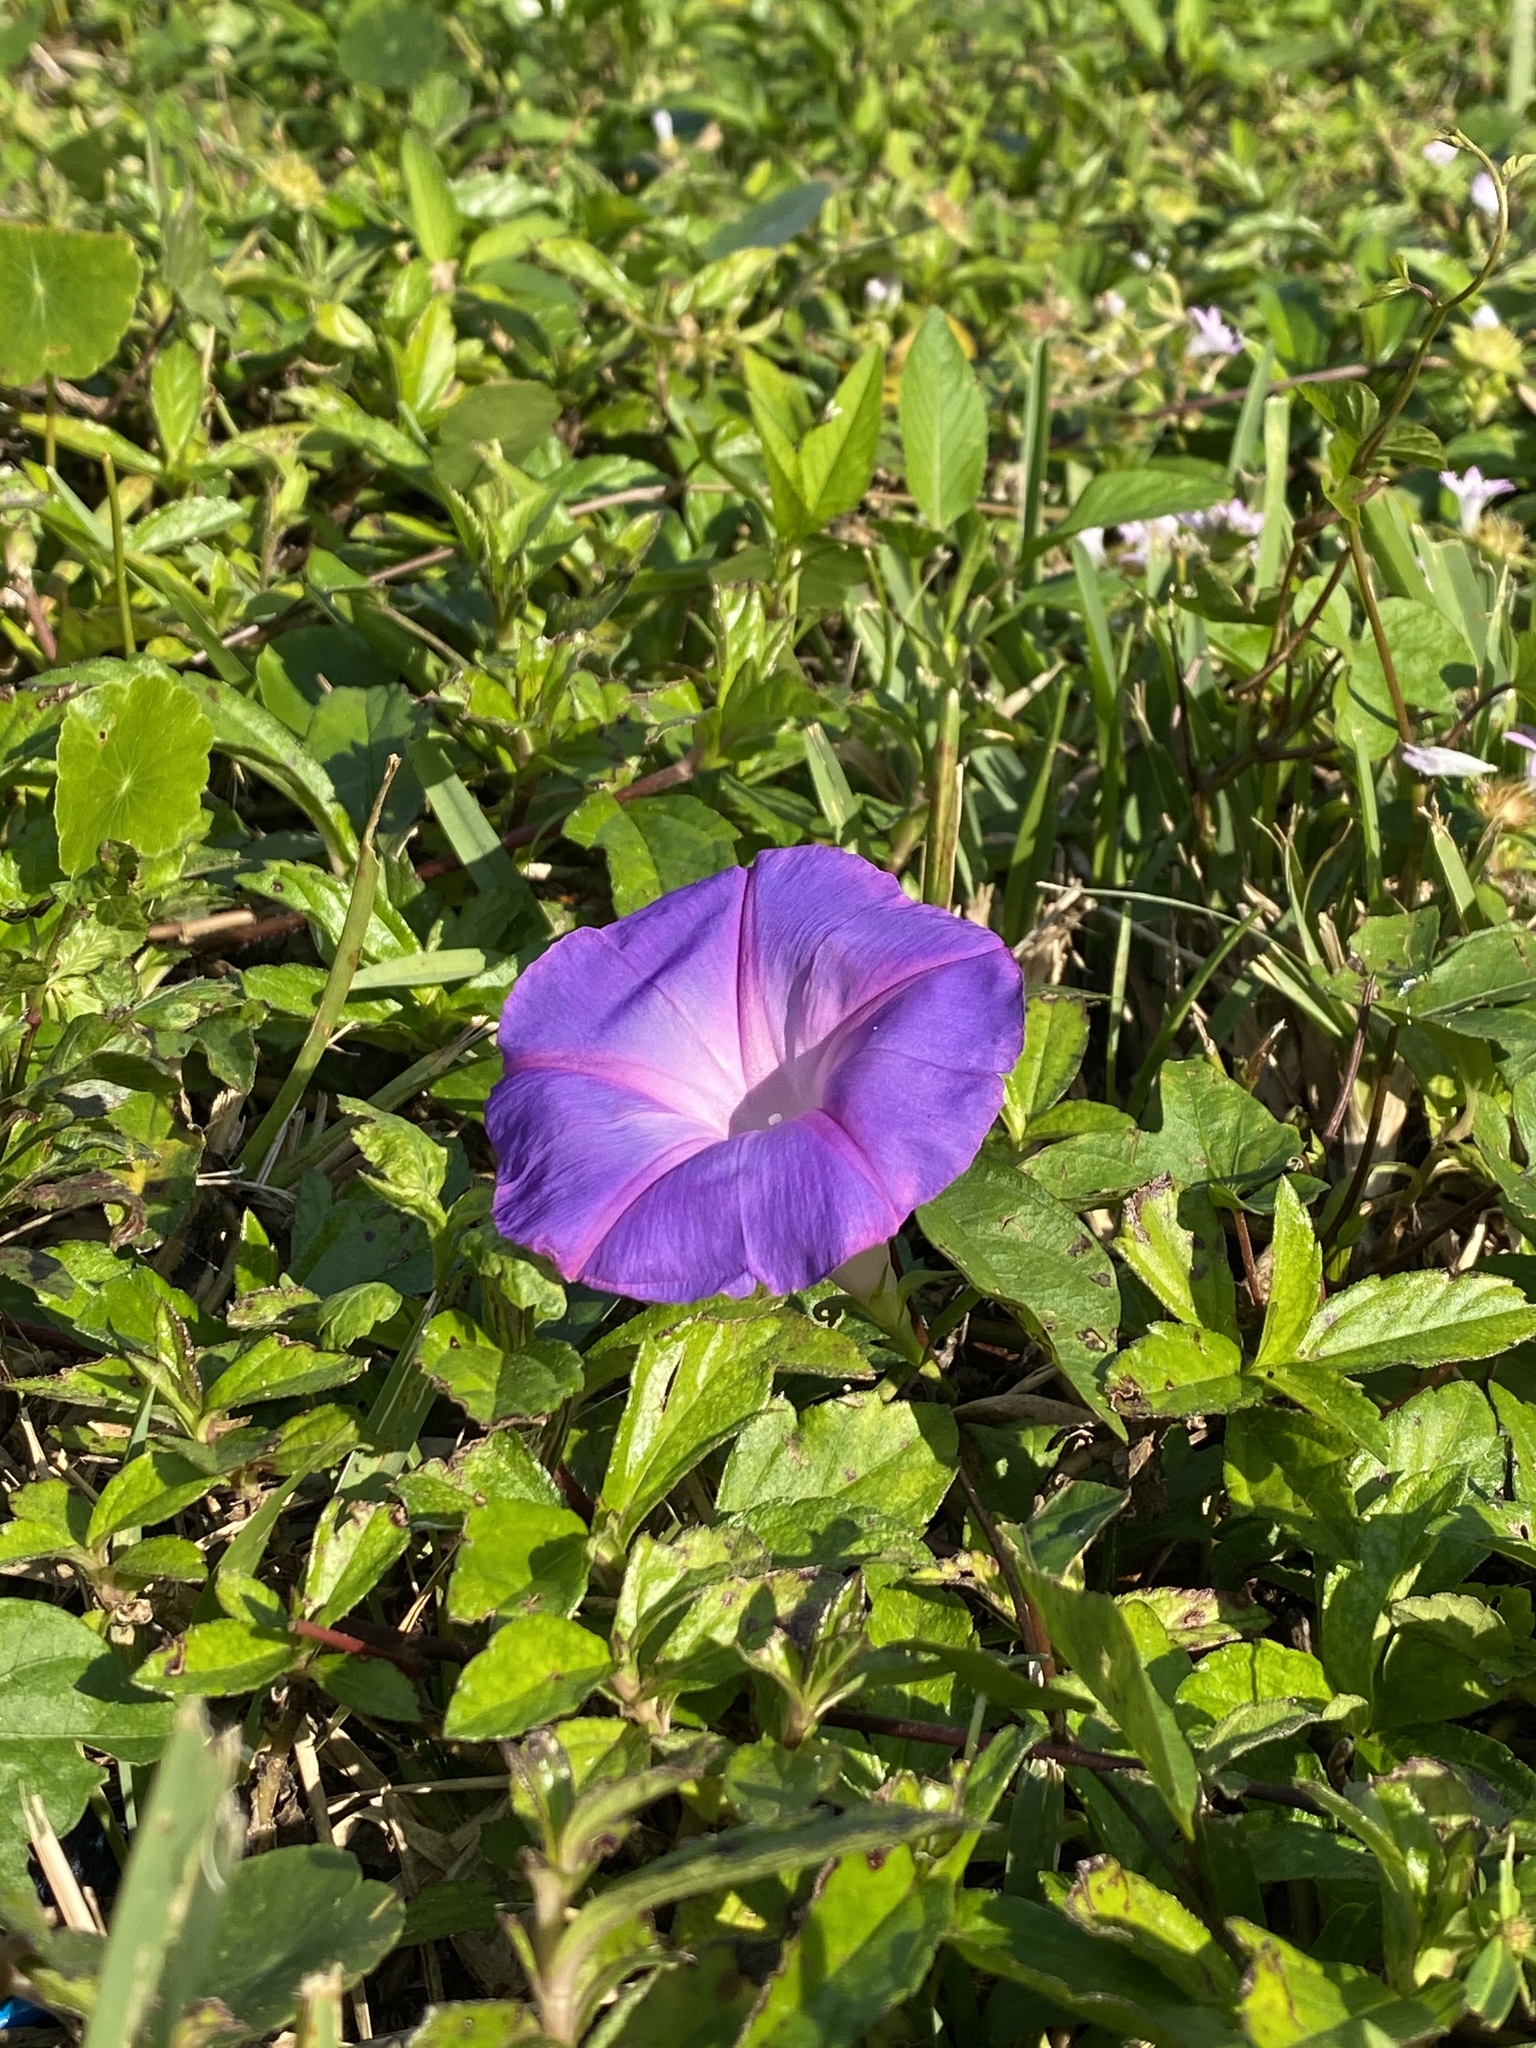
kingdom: Plantae
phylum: Tracheophyta
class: Magnoliopsida
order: Solanales
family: Convolvulaceae
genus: Ipomoea
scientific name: Ipomoea indica
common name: Blue dawnflower
